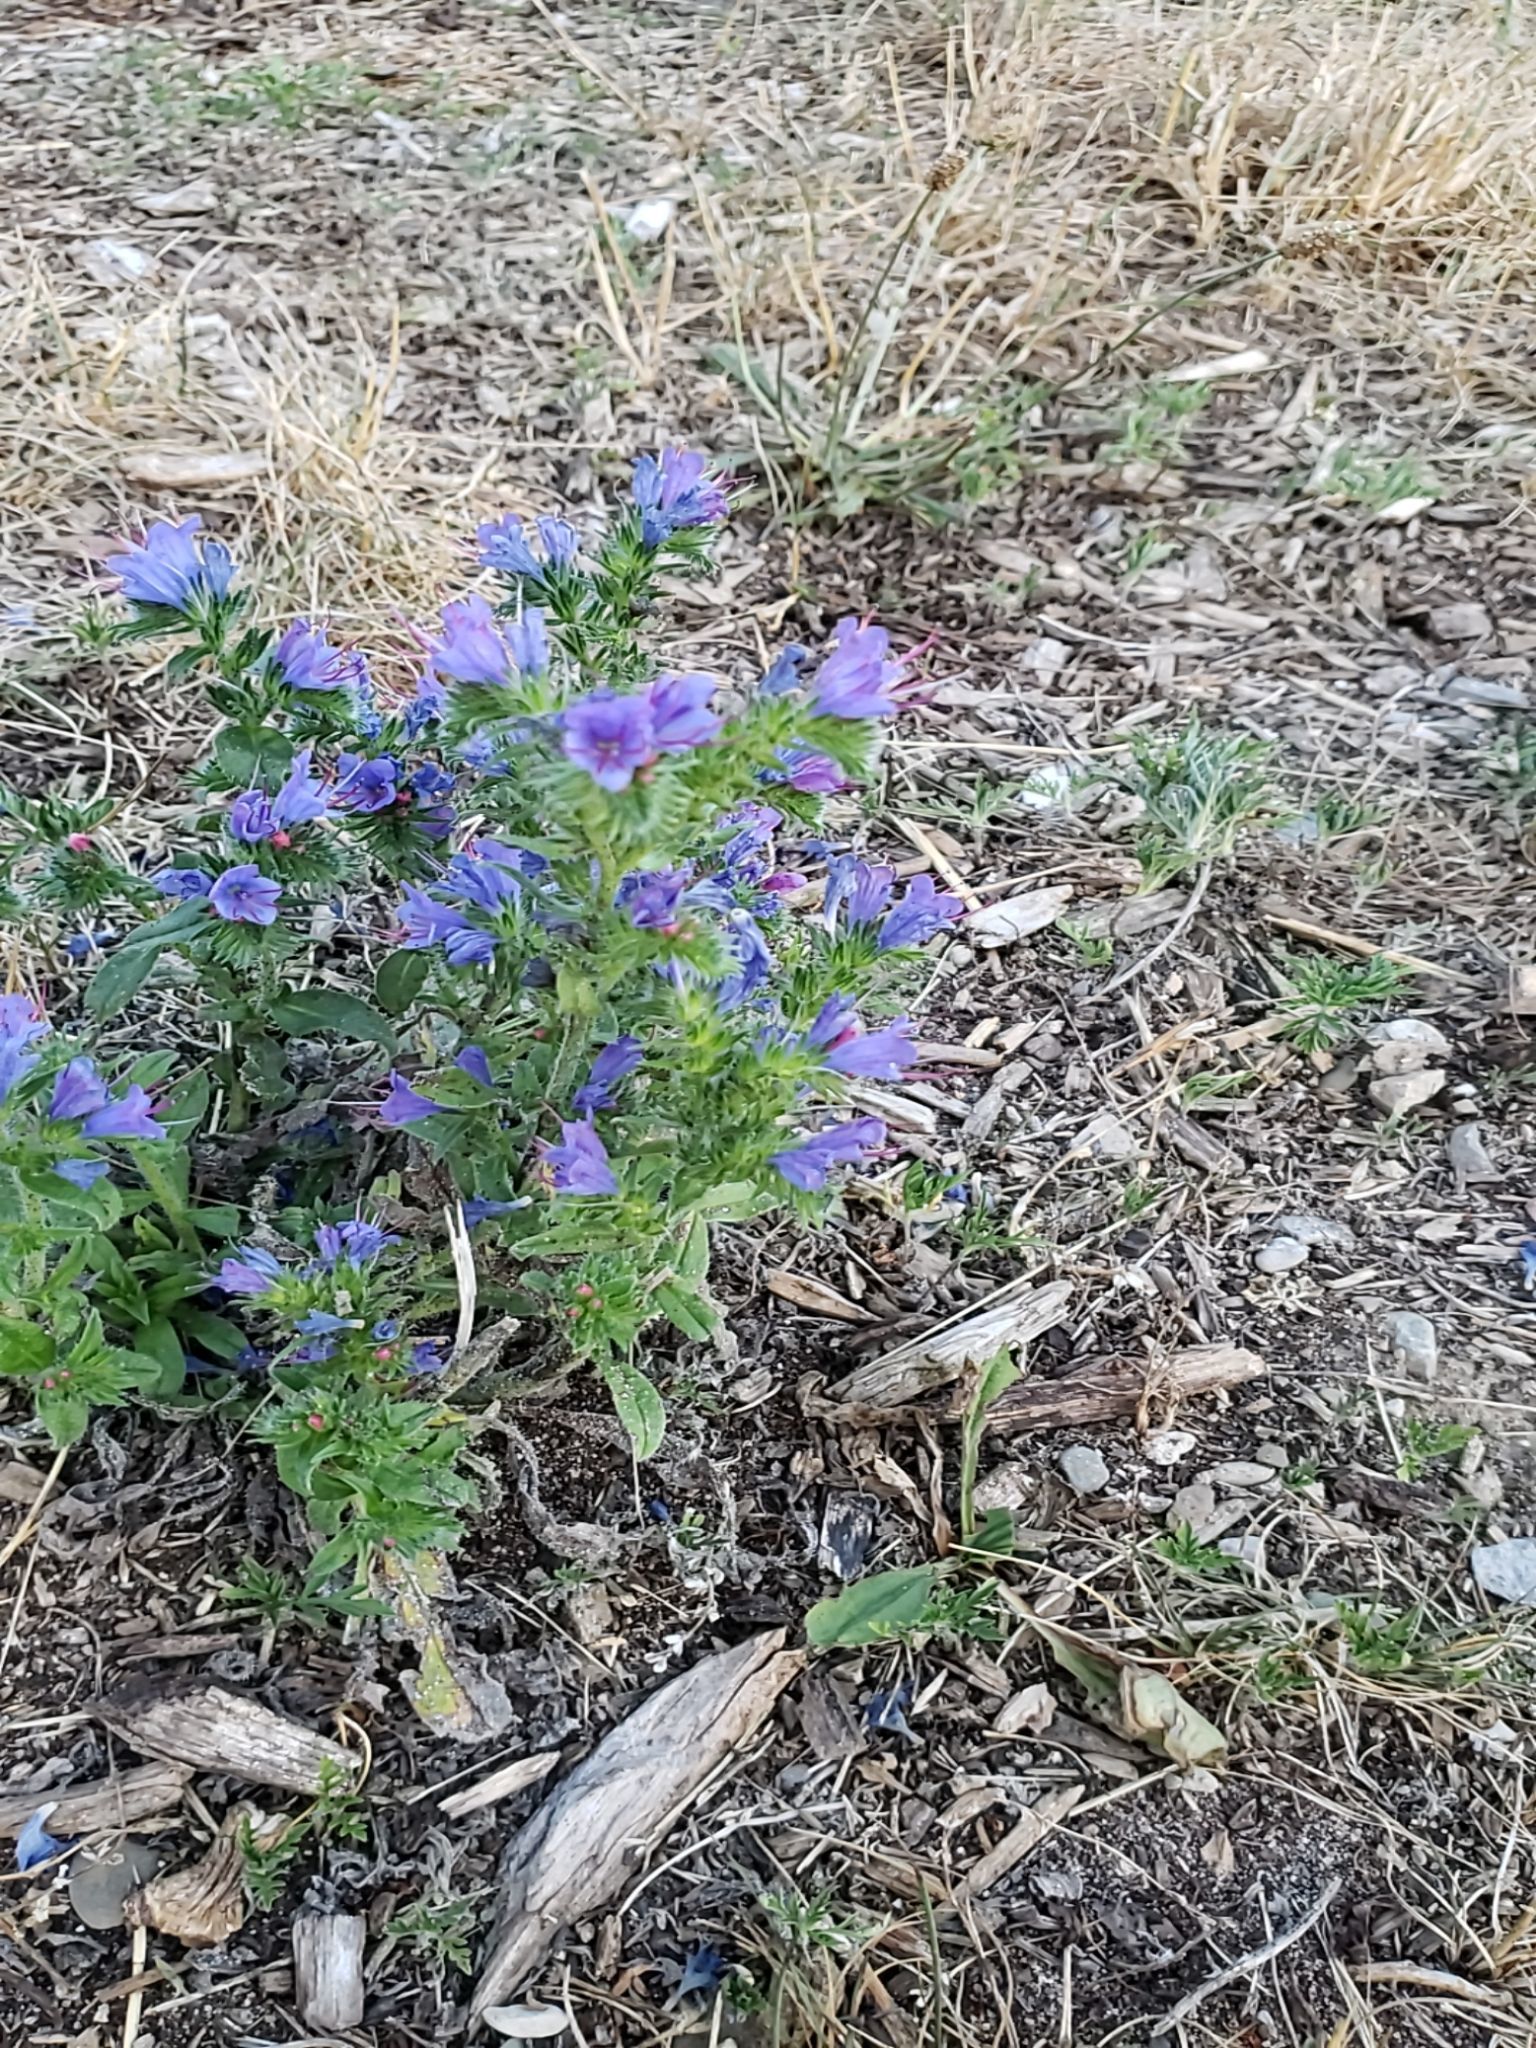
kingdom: Plantae
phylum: Tracheophyta
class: Magnoliopsida
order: Boraginales
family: Boraginaceae
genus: Echium
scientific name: Echium vulgare
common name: Common viper's bugloss
